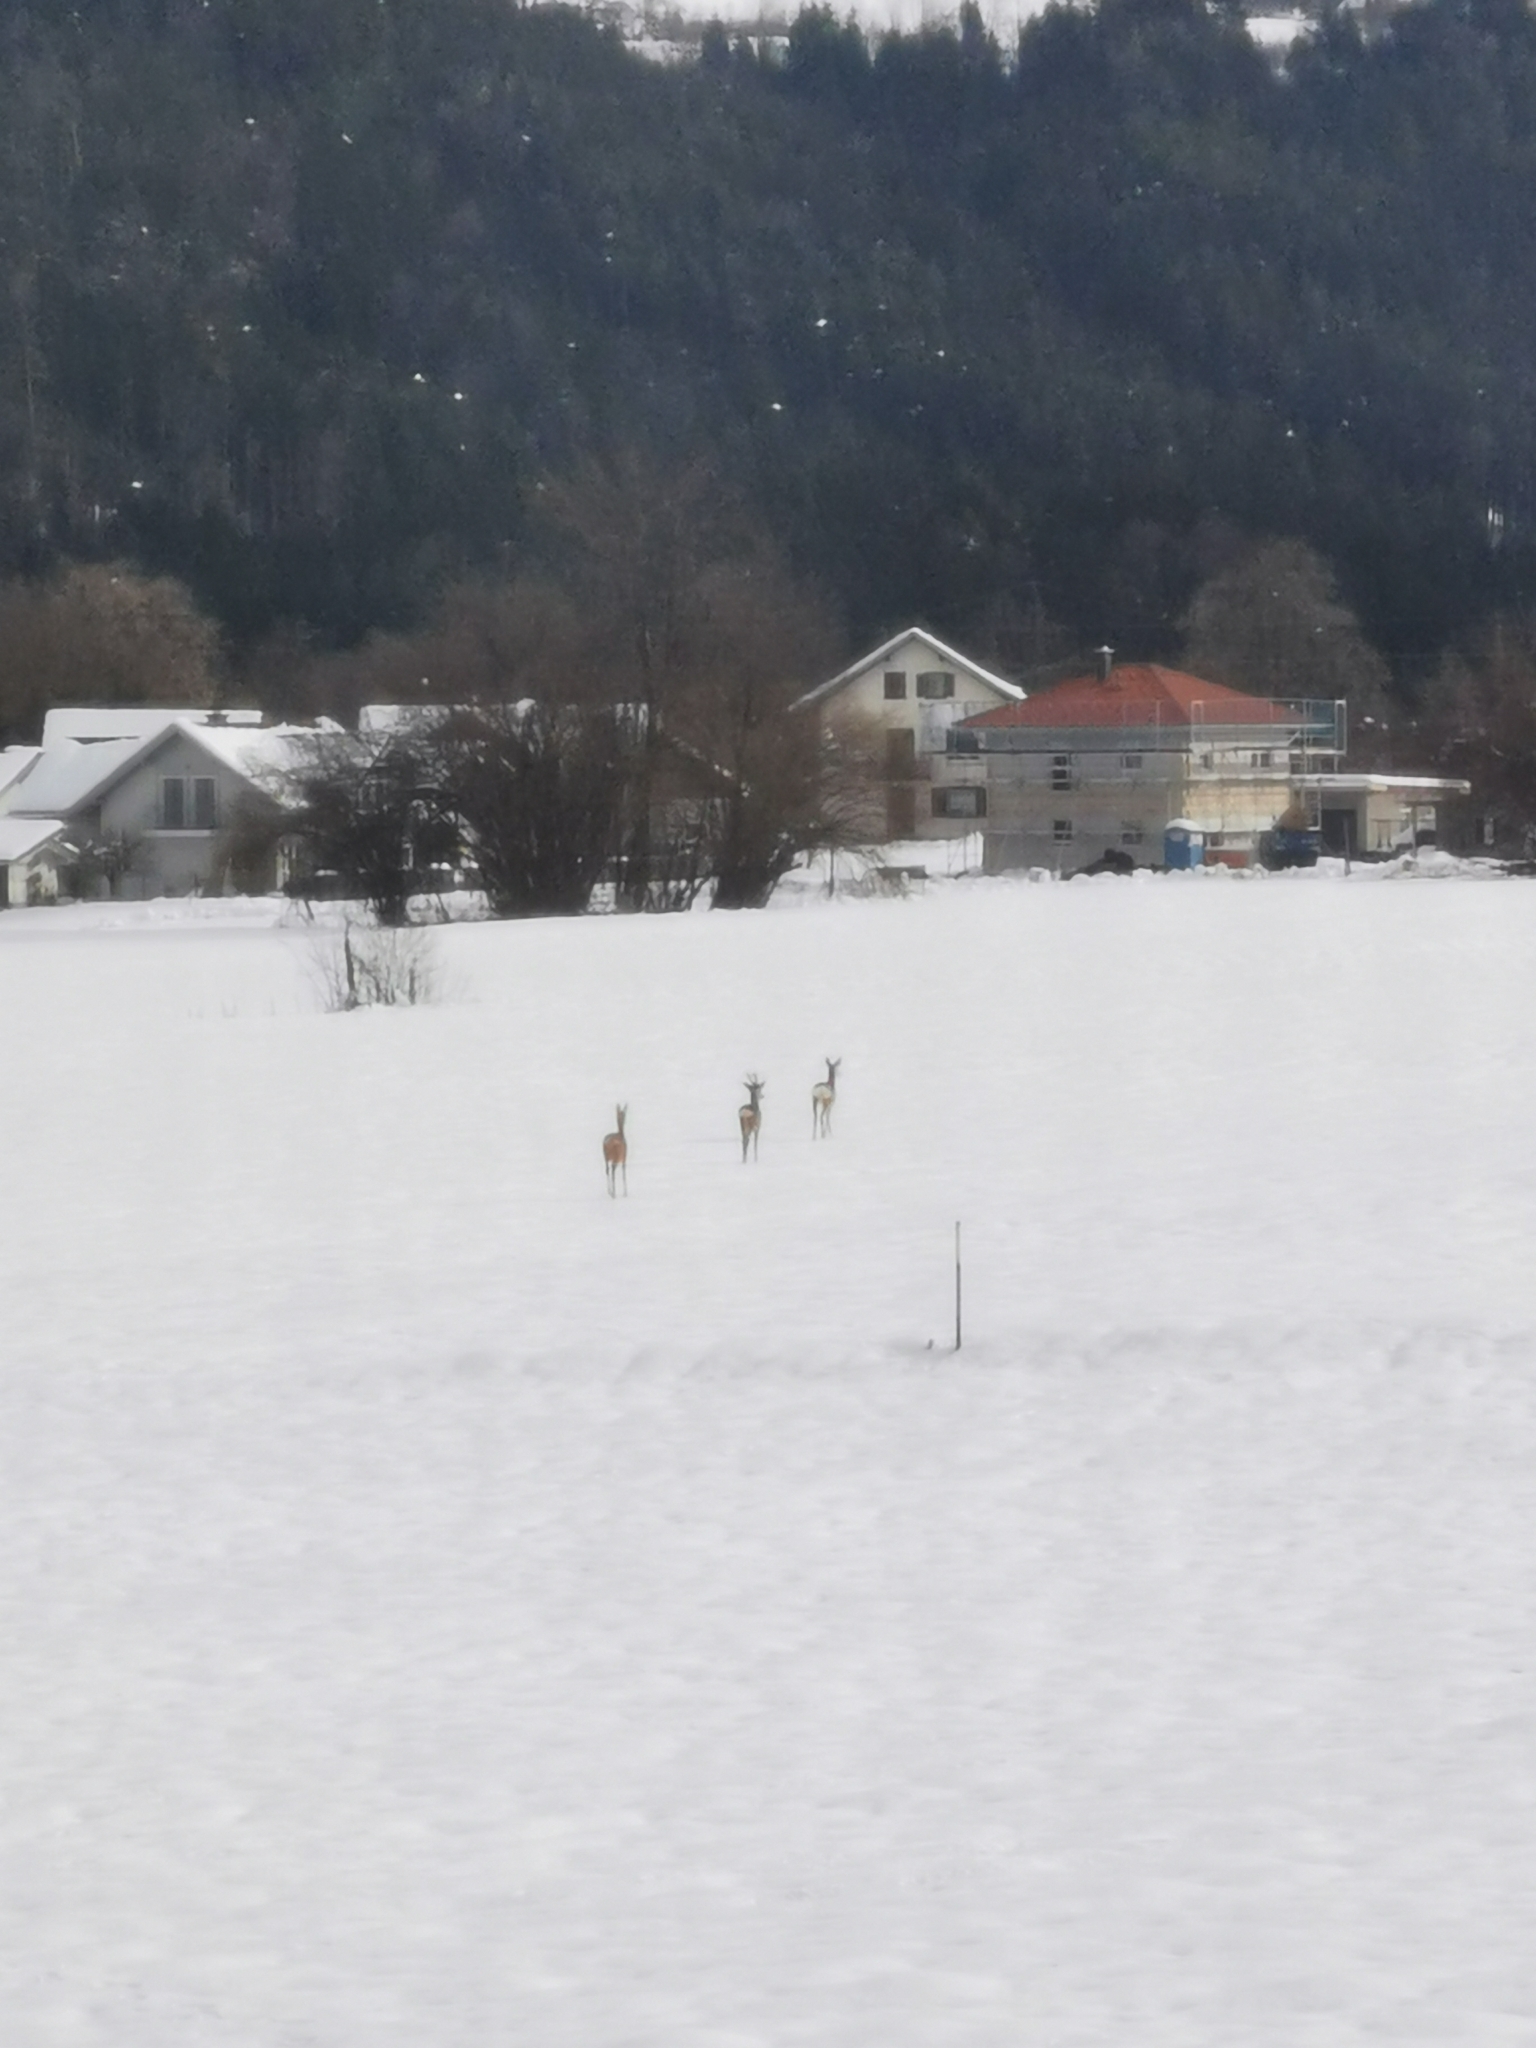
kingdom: Animalia
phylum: Chordata
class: Mammalia
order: Artiodactyla
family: Cervidae
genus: Capreolus
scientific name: Capreolus capreolus
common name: Western roe deer
